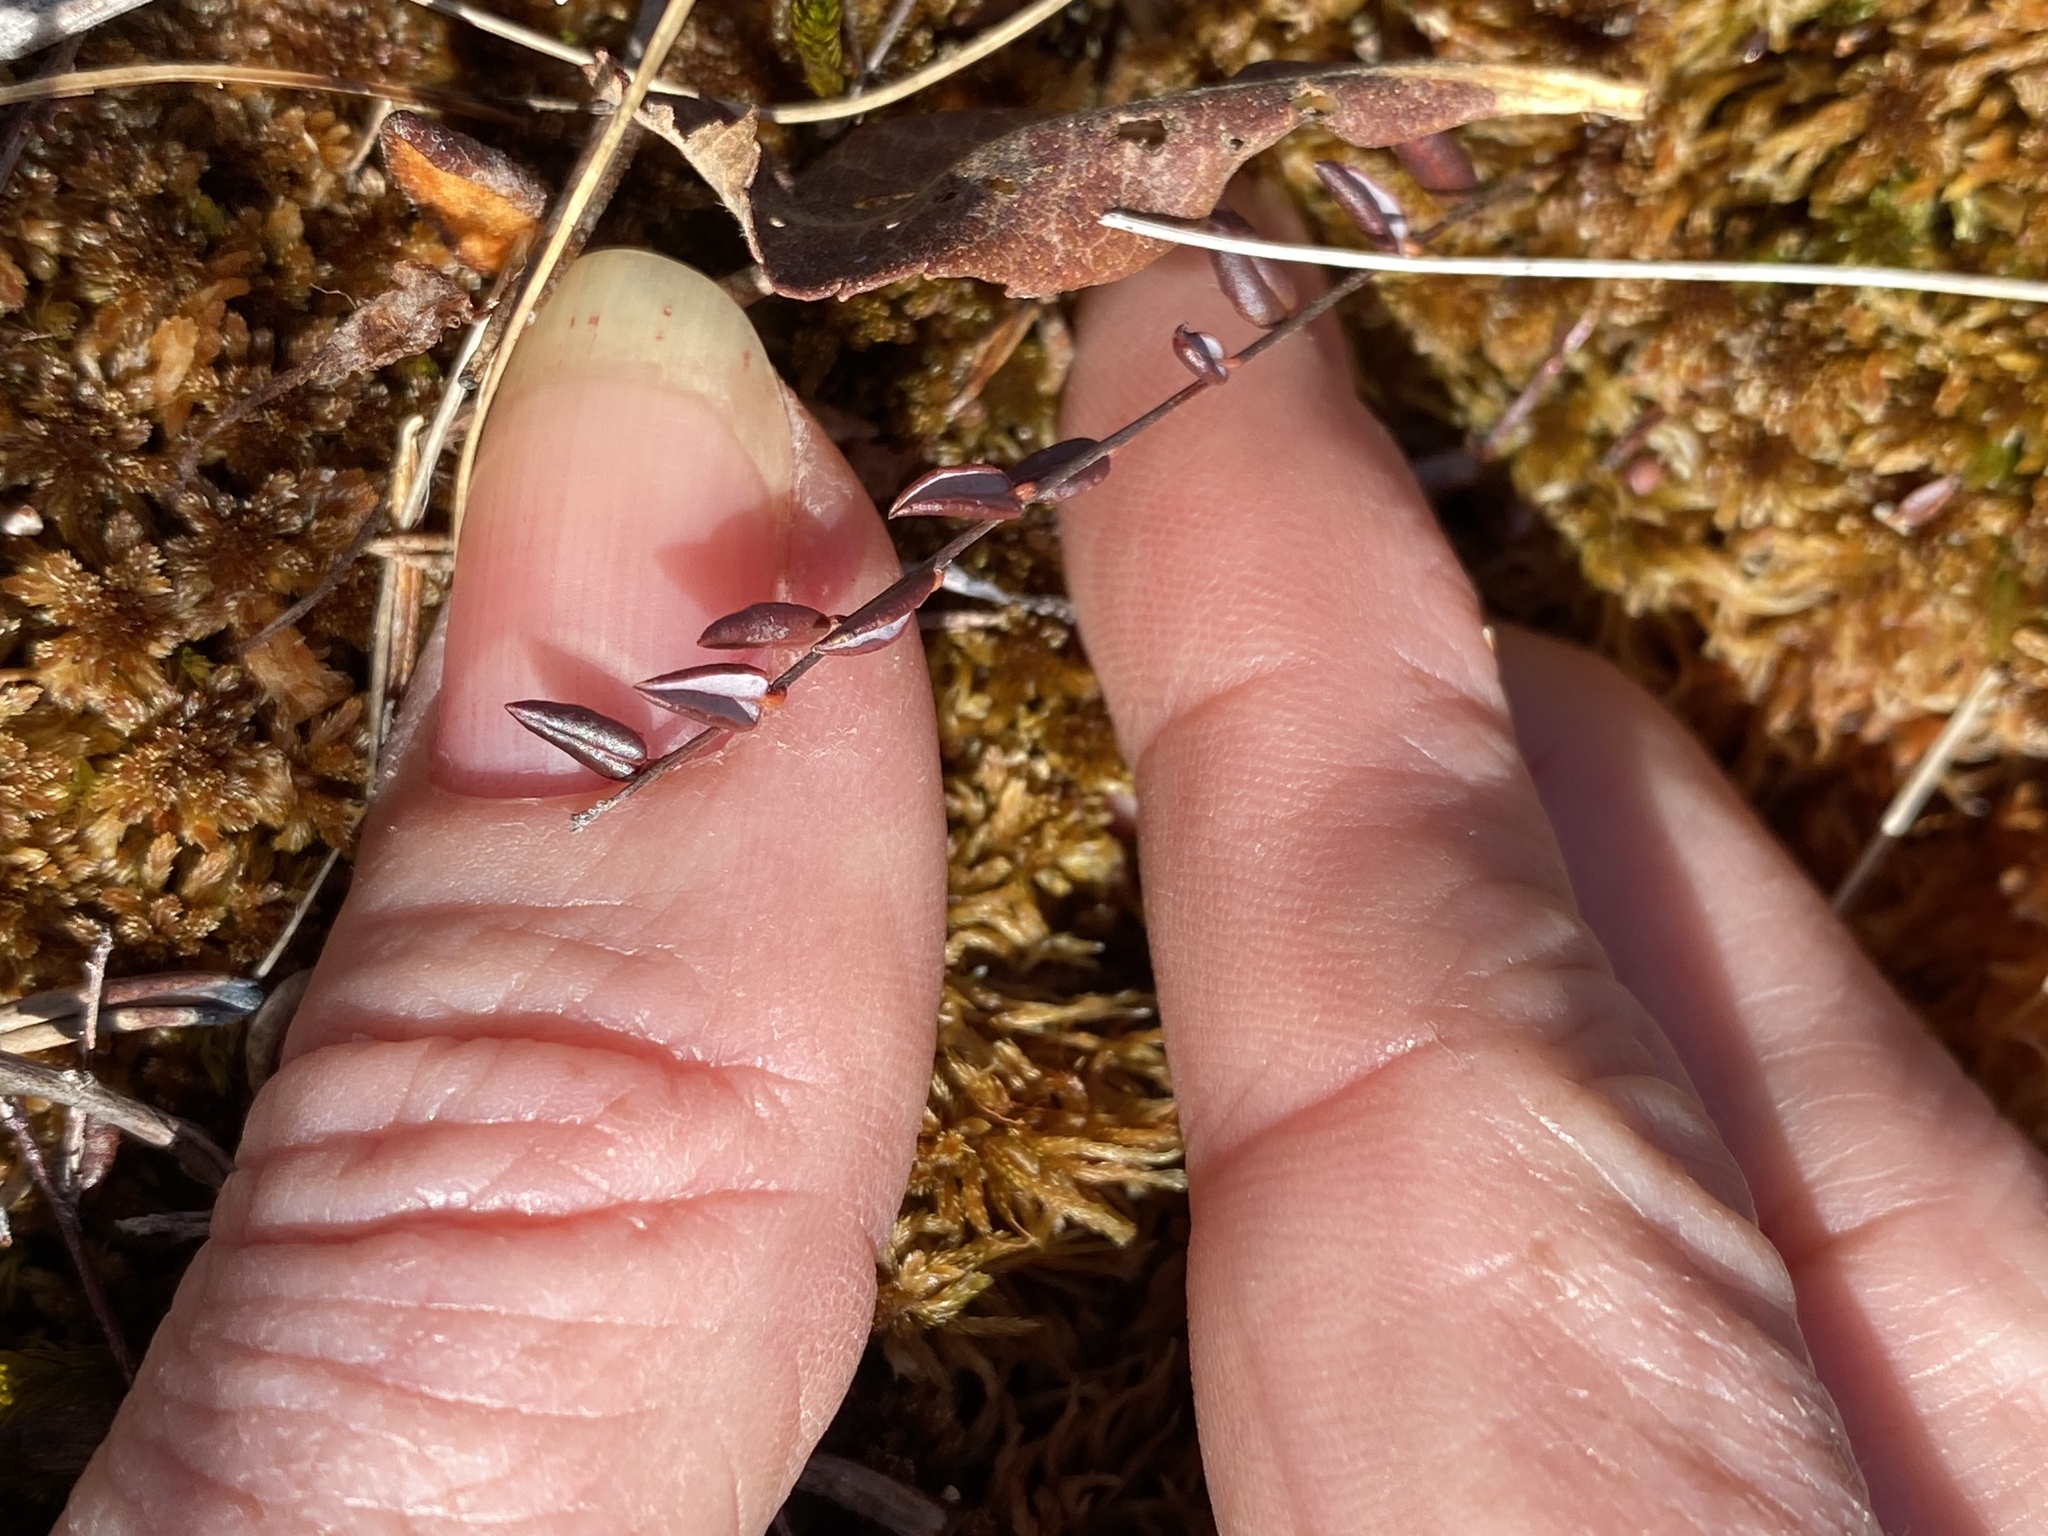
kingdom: Plantae
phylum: Tracheophyta
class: Magnoliopsida
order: Ericales
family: Ericaceae
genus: Vaccinium
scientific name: Vaccinium oxycoccos
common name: Cranberry
